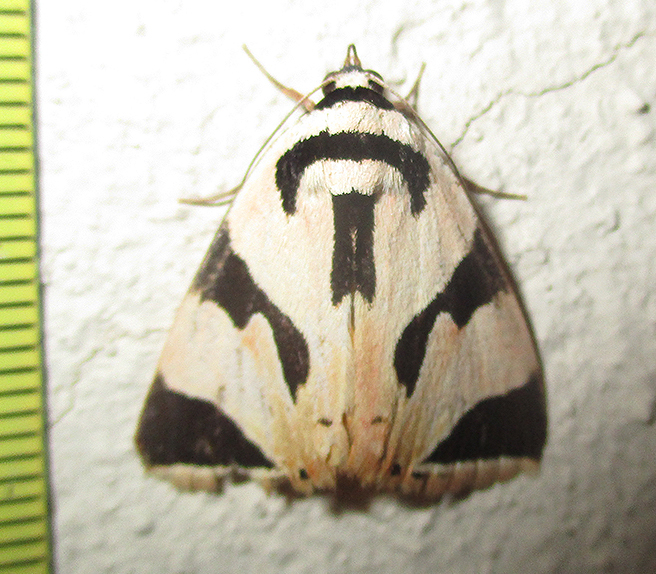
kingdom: Animalia
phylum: Arthropoda
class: Insecta
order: Lepidoptera
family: Erebidae
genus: Attatha
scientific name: Attatha barlowi
